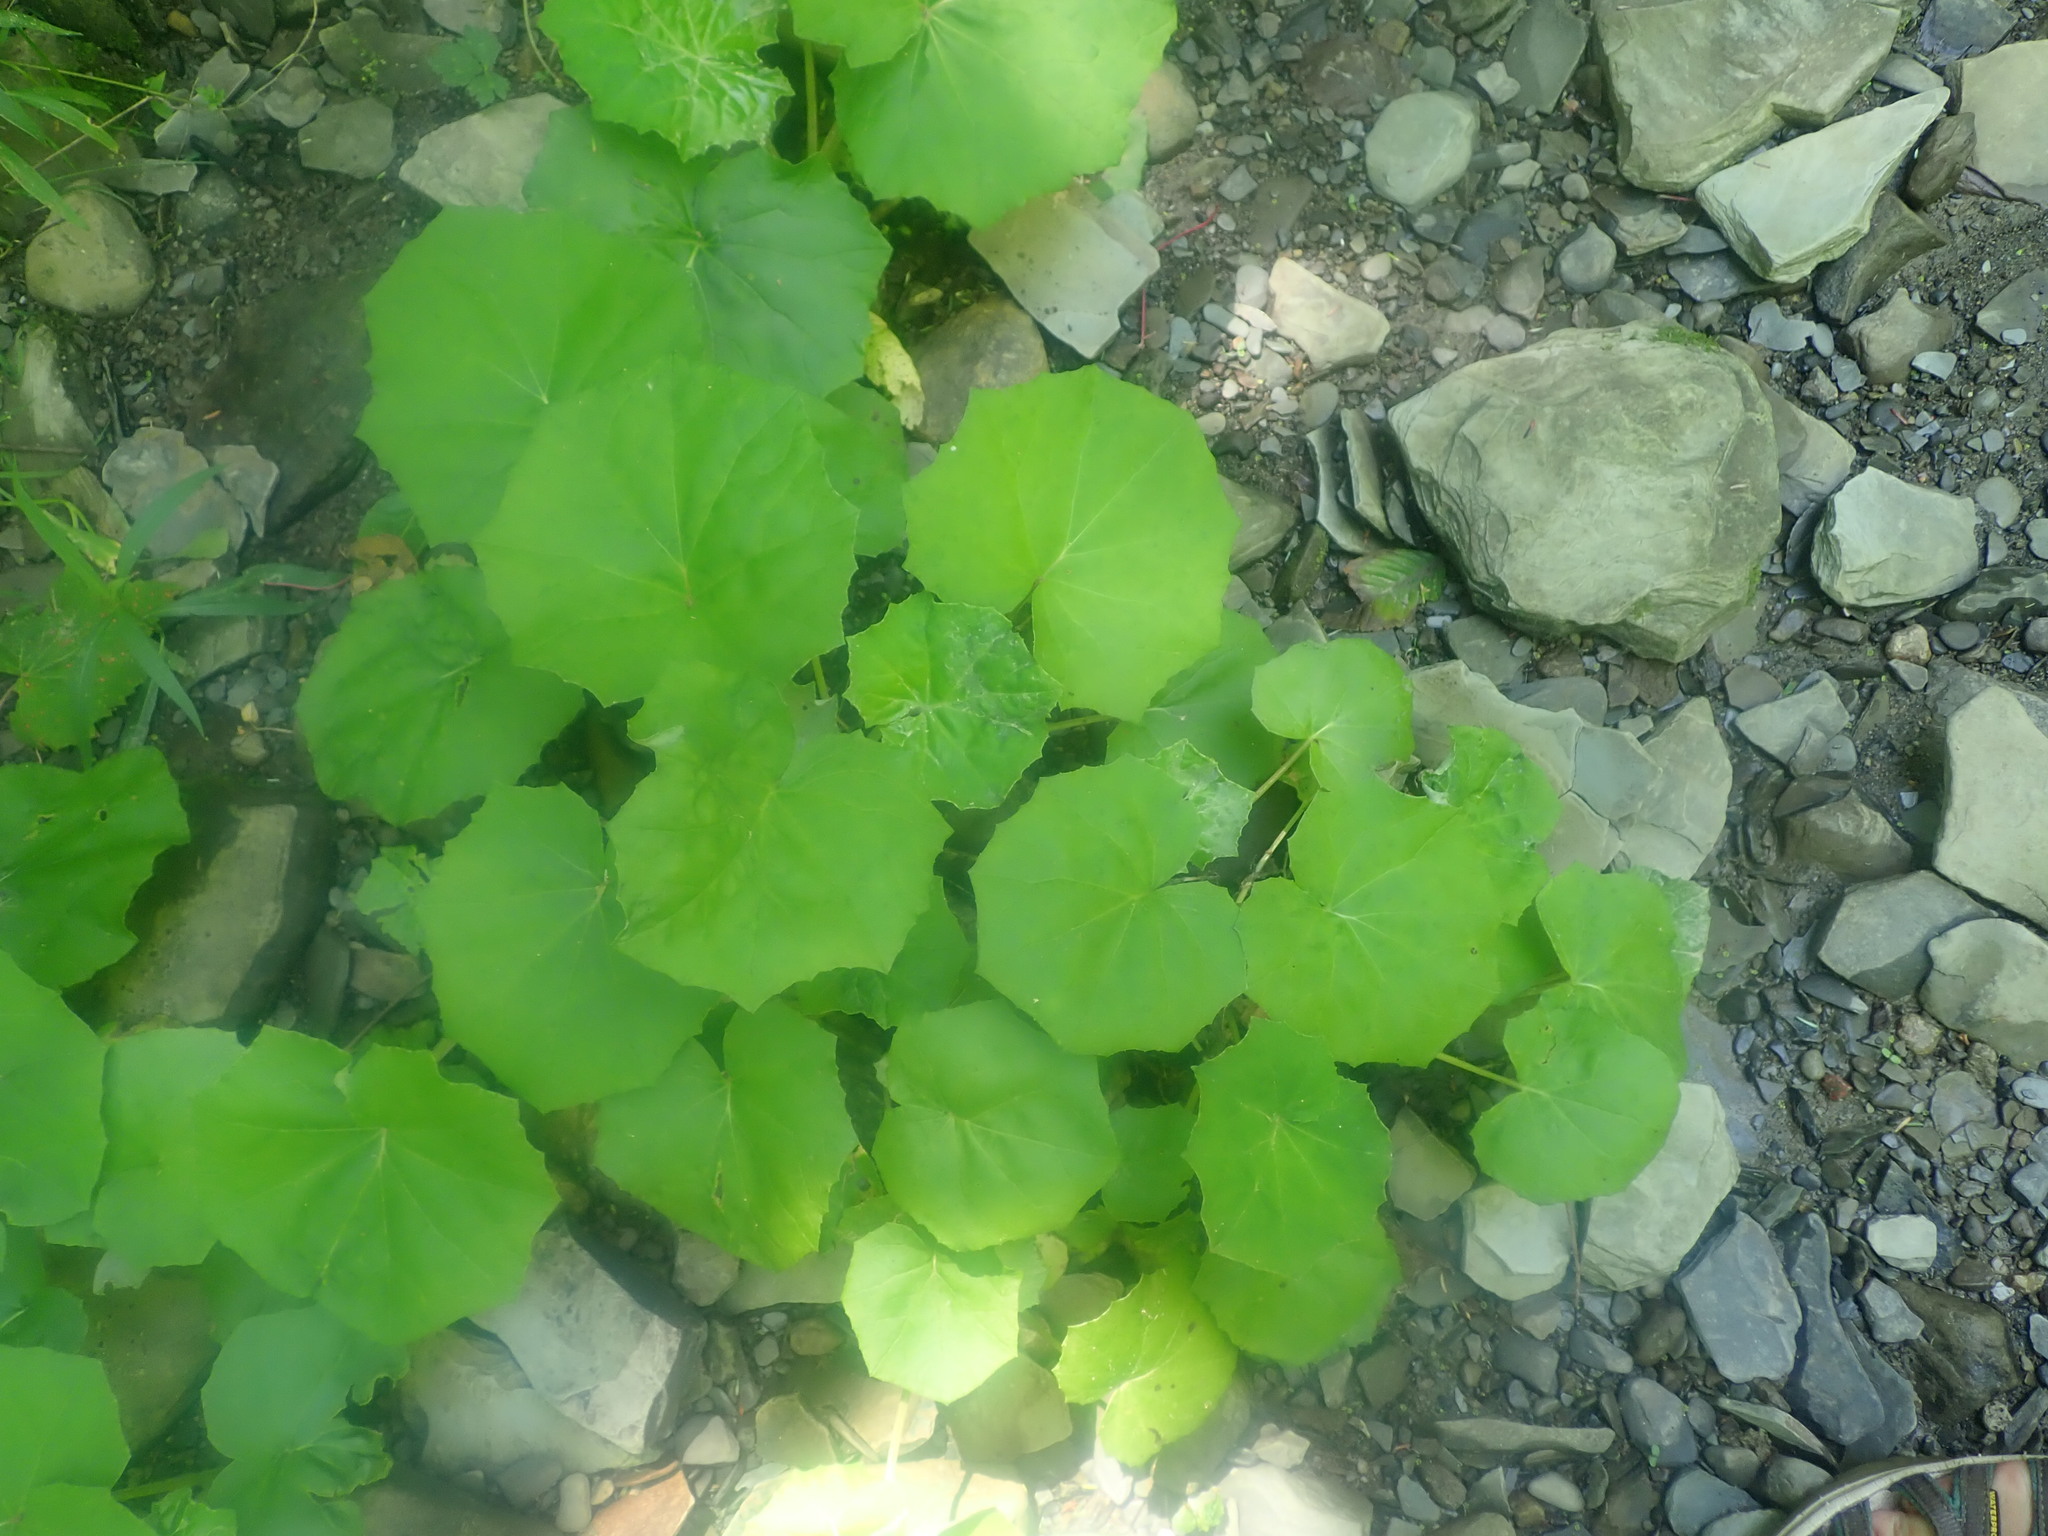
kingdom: Plantae
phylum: Tracheophyta
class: Magnoliopsida
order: Asterales
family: Asteraceae
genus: Tussilago
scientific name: Tussilago farfara
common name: Coltsfoot
